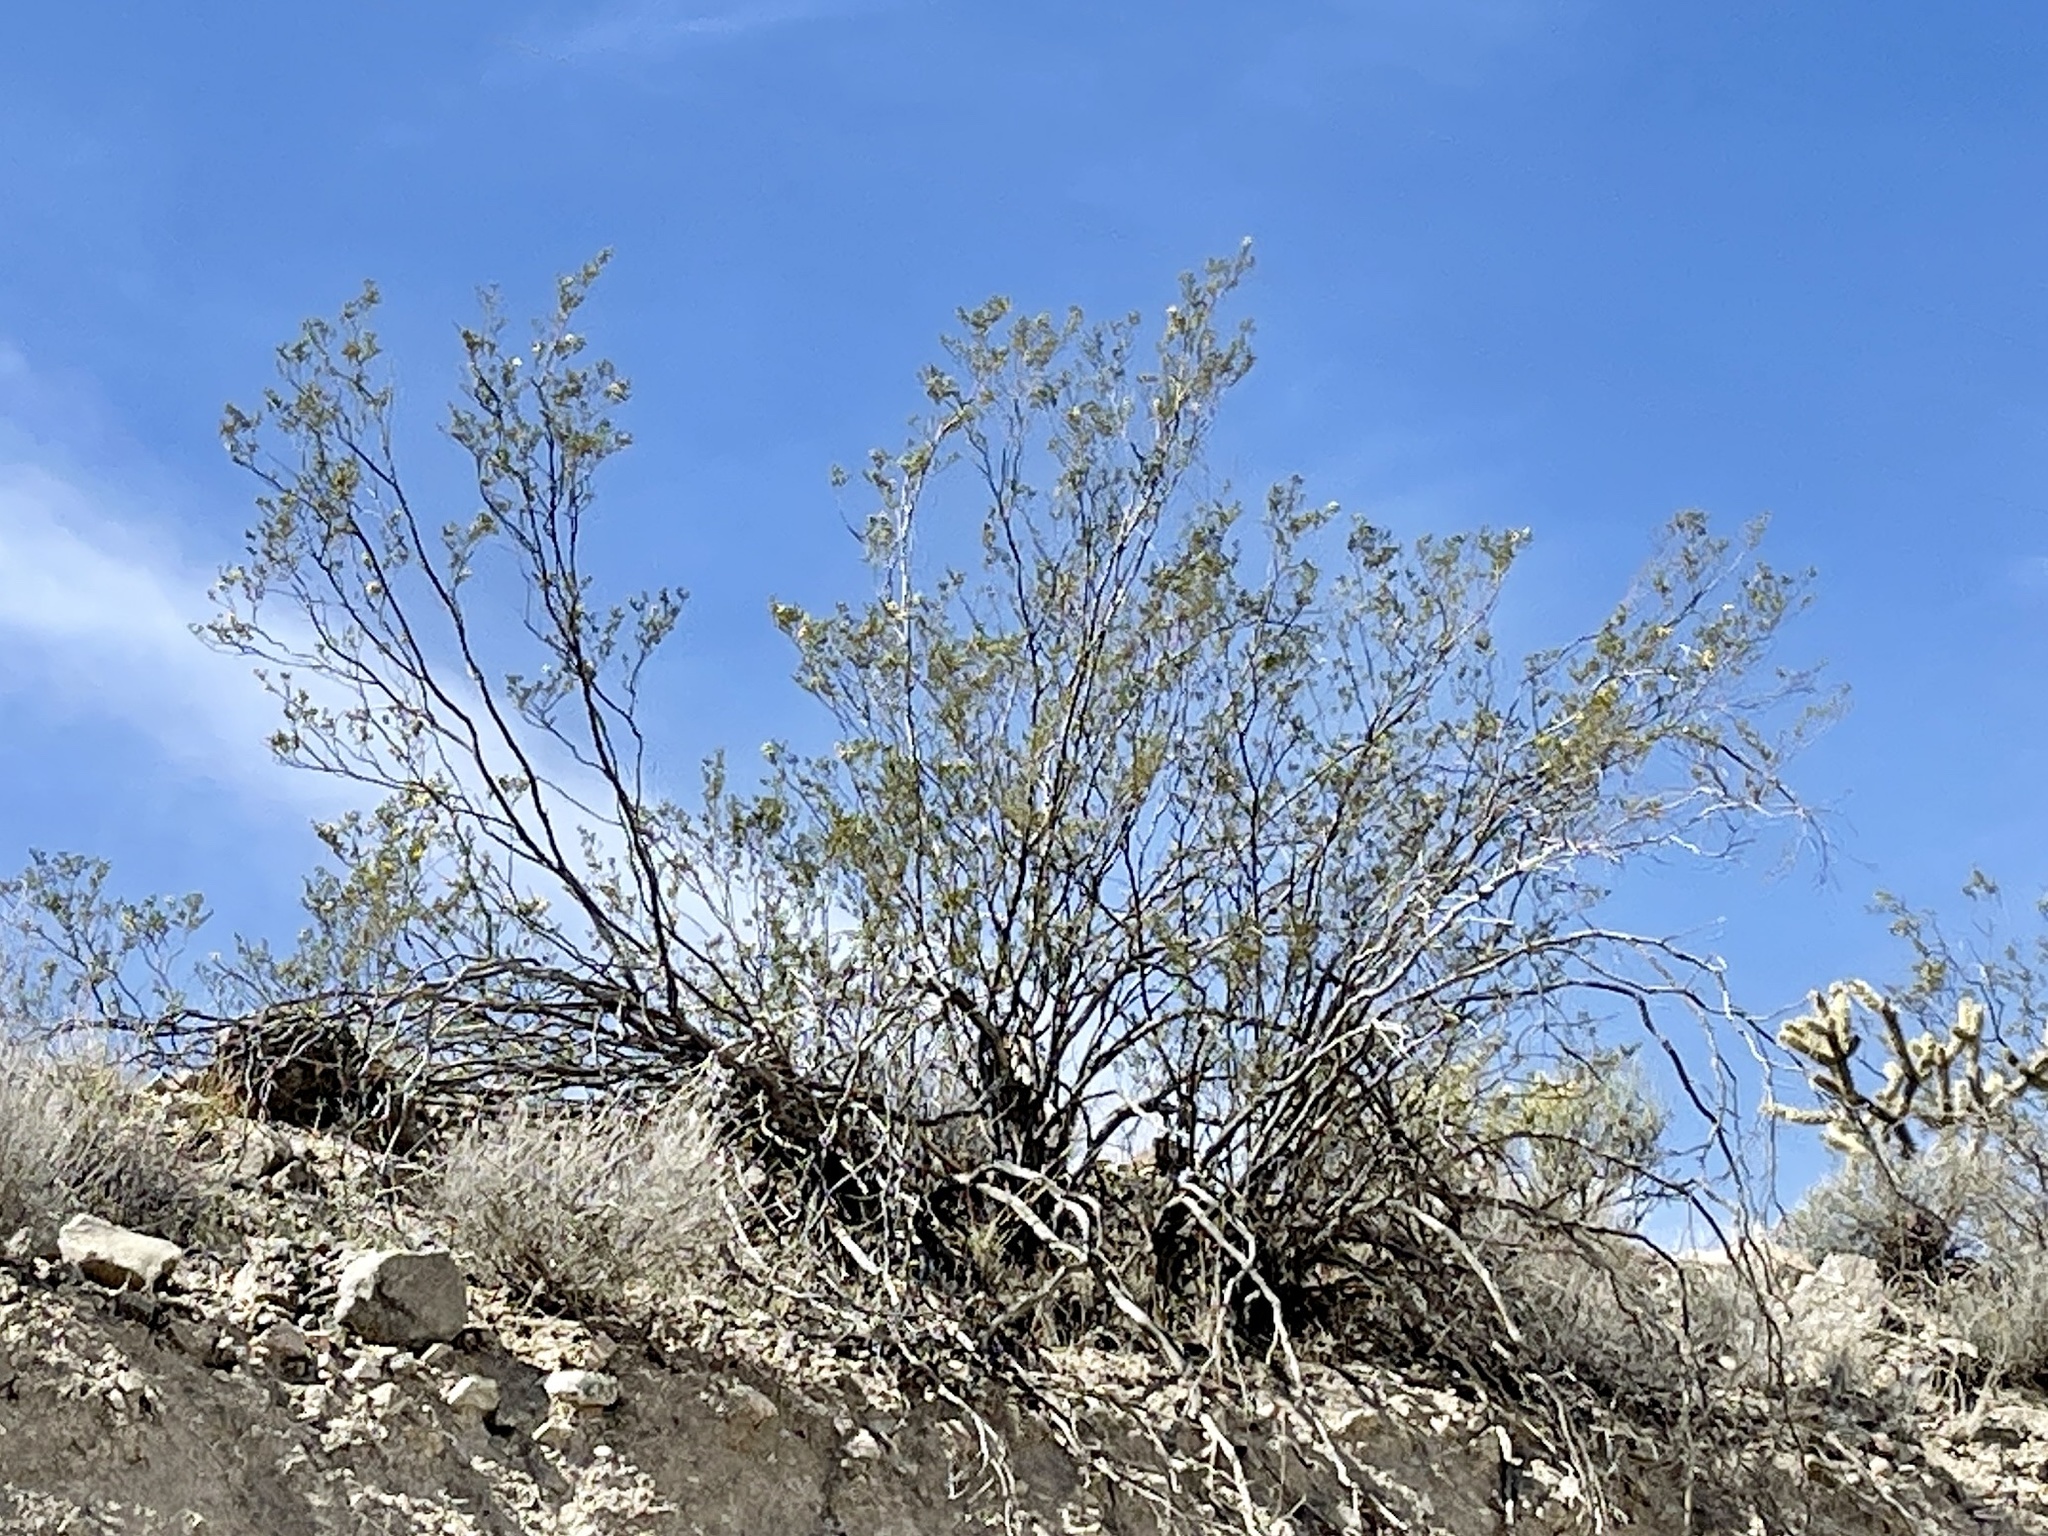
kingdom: Plantae
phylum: Tracheophyta
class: Magnoliopsida
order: Zygophyllales
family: Zygophyllaceae
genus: Larrea
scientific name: Larrea tridentata
